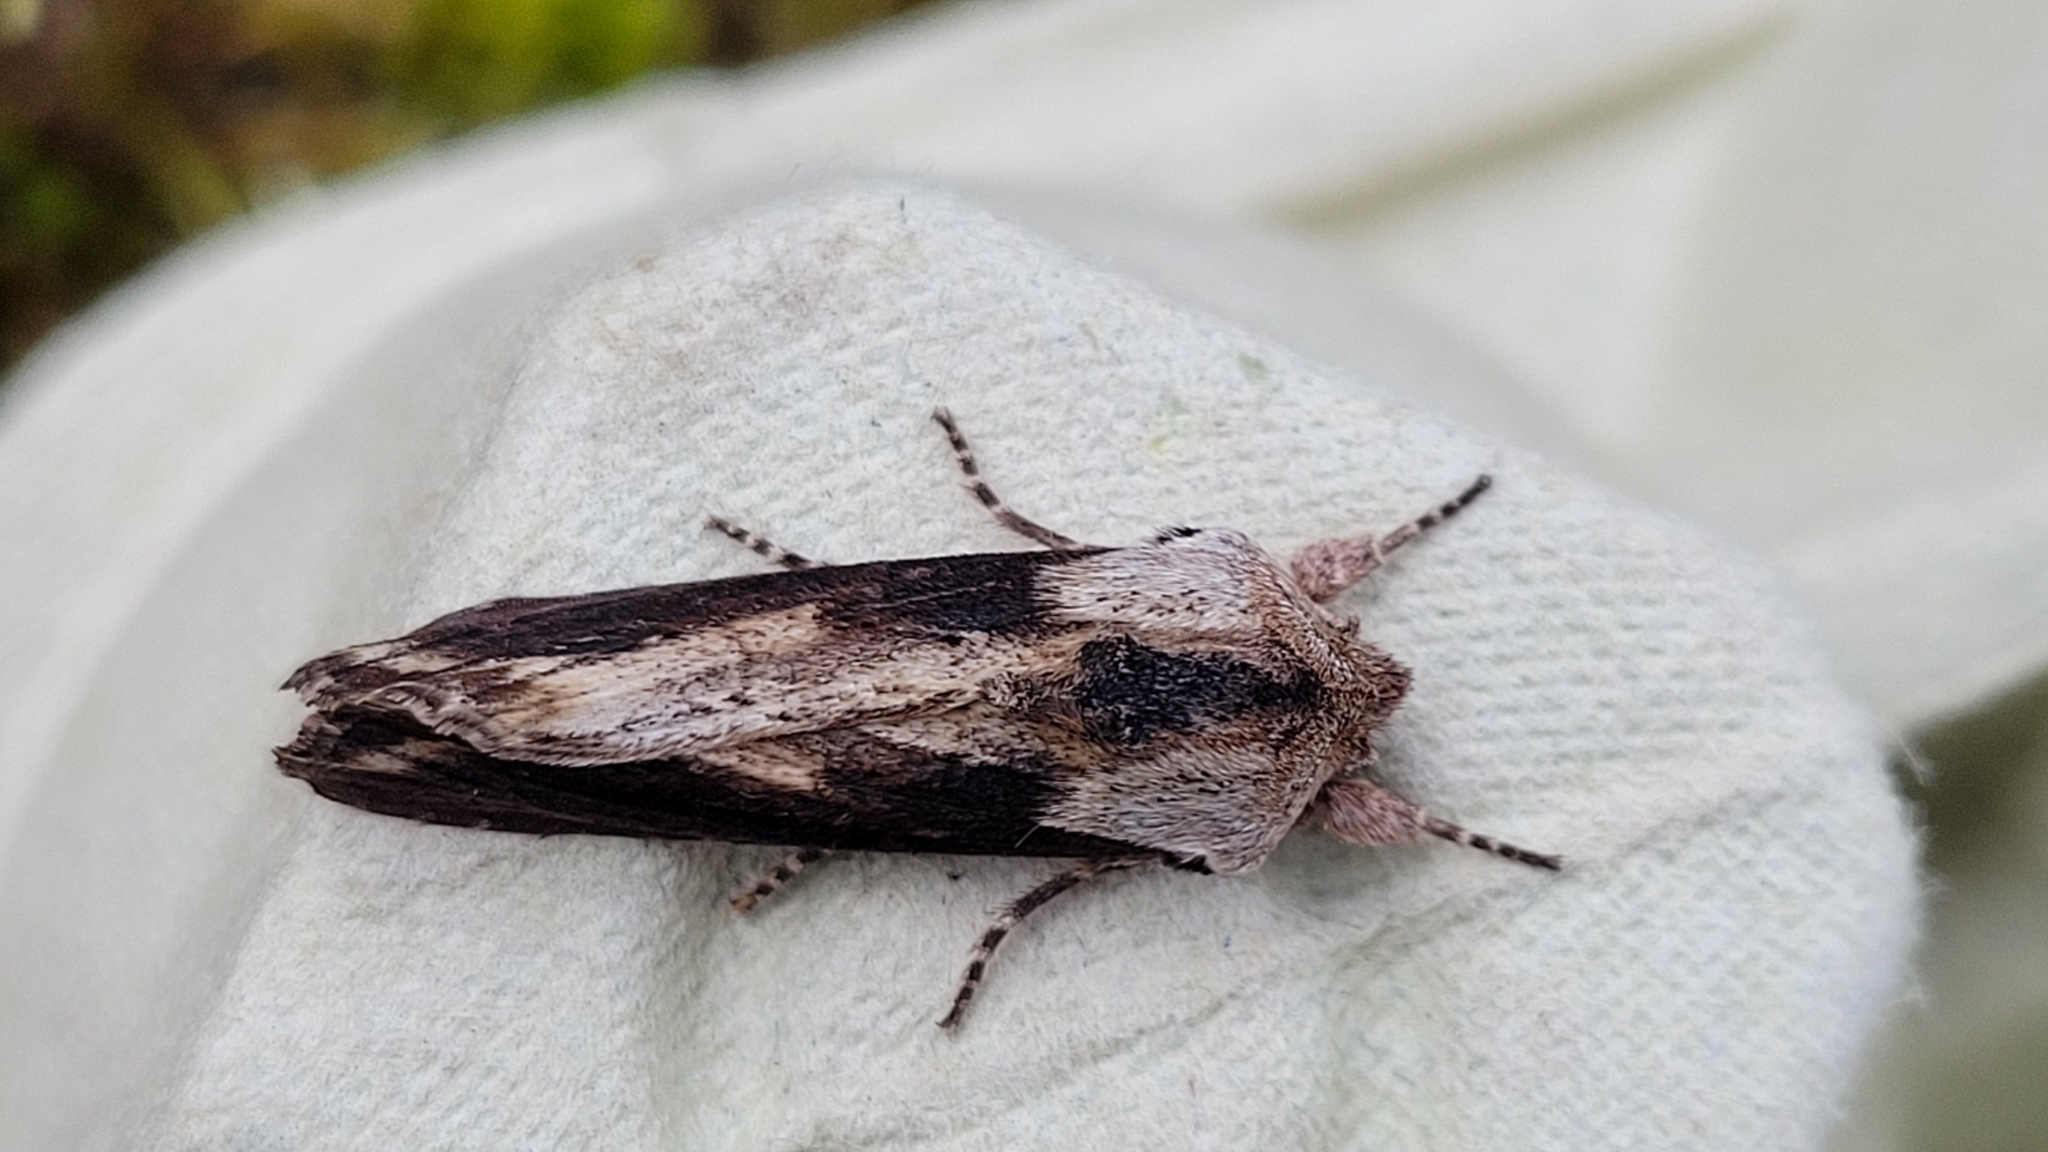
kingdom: Animalia
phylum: Arthropoda
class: Insecta
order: Lepidoptera
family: Noctuidae
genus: Egira
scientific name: Egira conspicillaris
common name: Silver cloud
